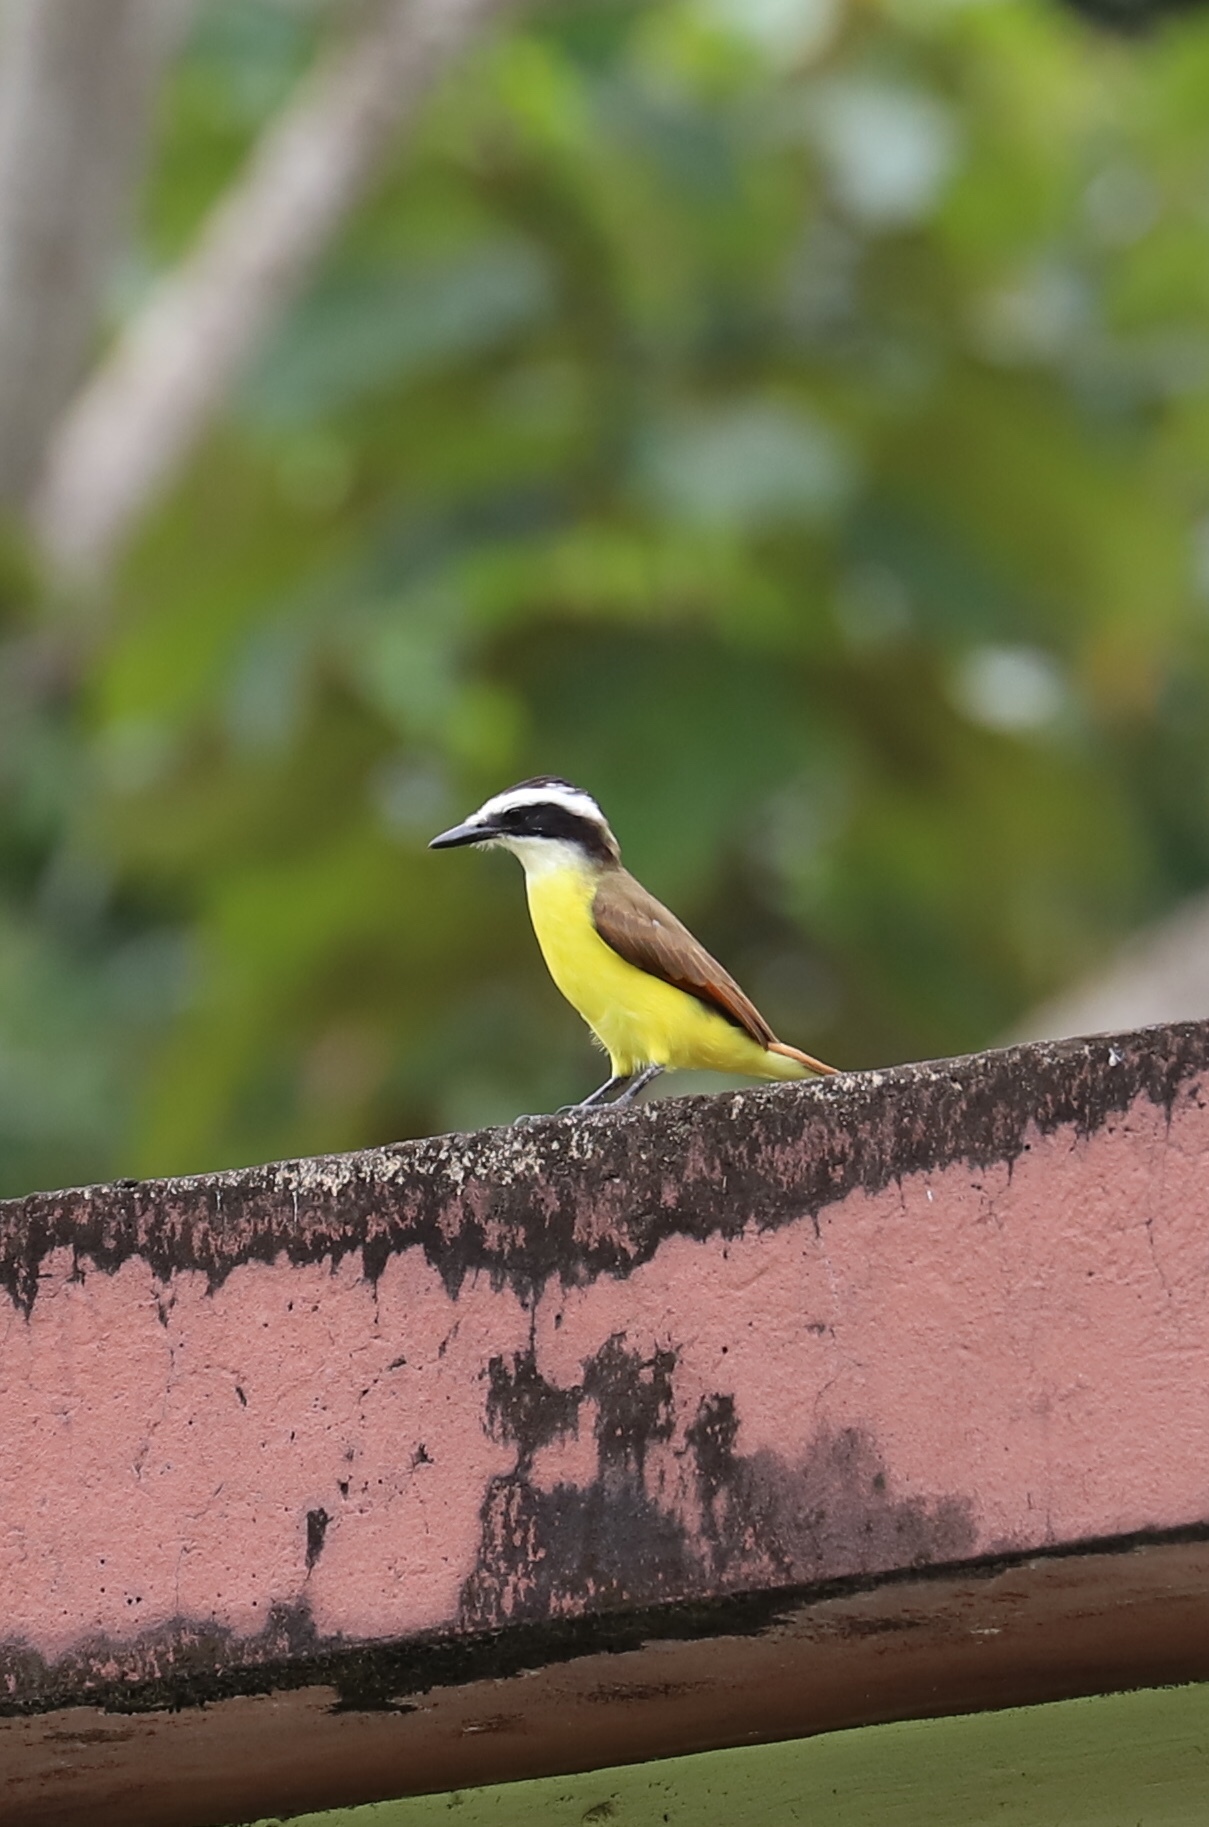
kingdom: Animalia
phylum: Chordata
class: Aves
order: Passeriformes
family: Tyrannidae
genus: Pitangus
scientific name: Pitangus sulphuratus
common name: Great kiskadee
